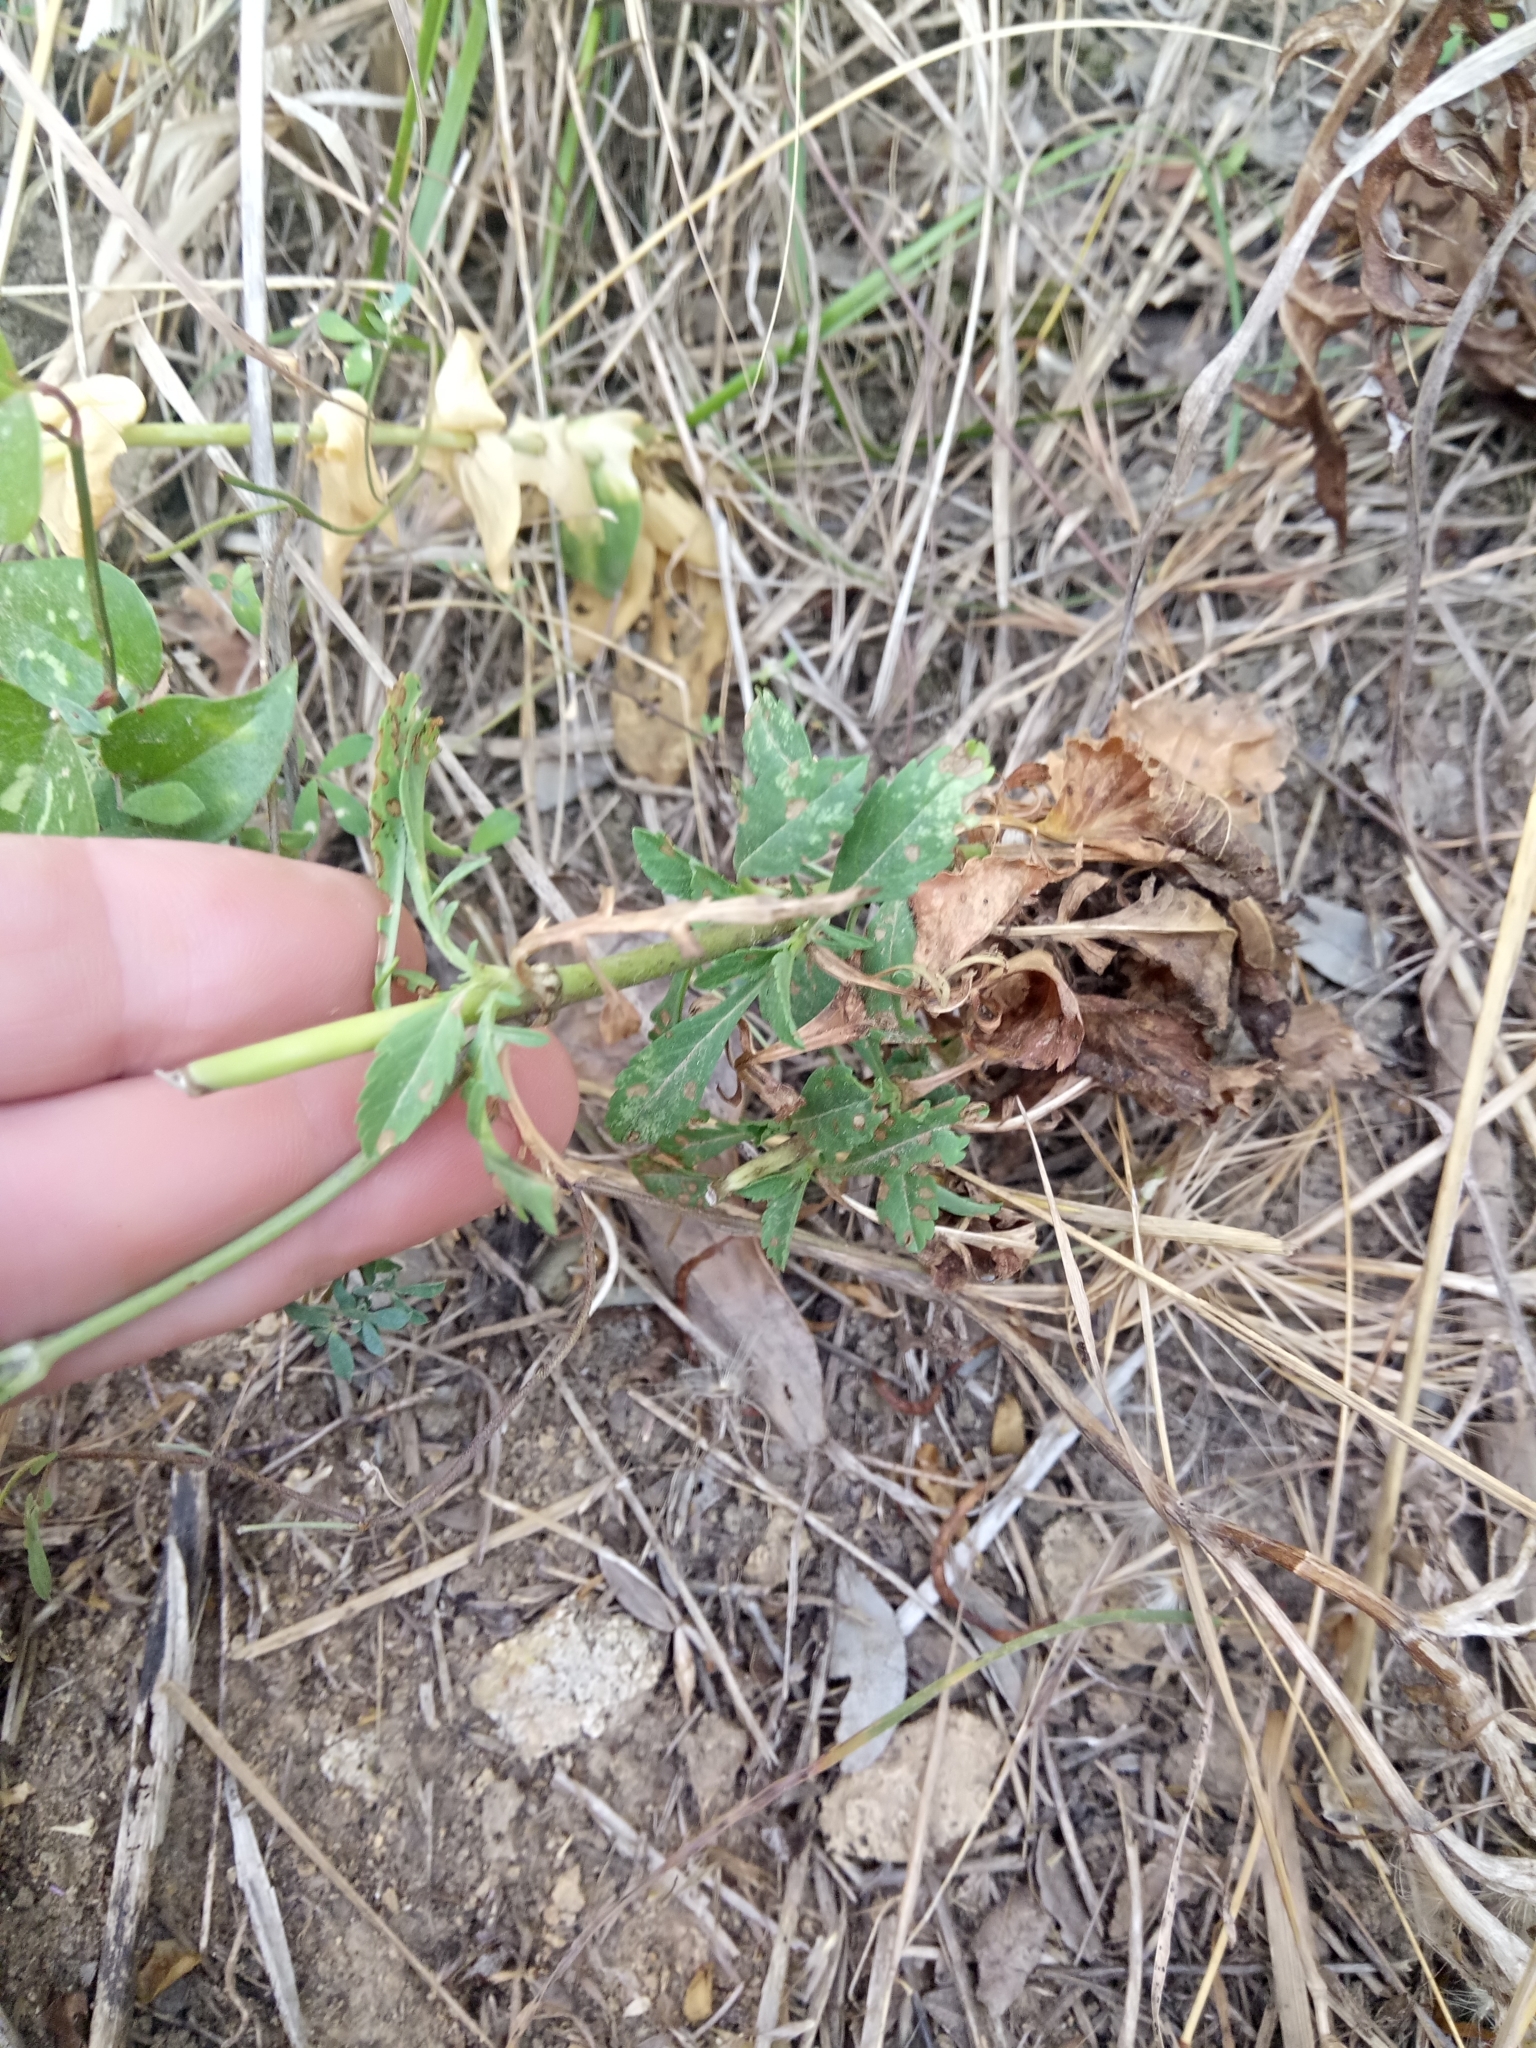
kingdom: Plantae
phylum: Tracheophyta
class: Magnoliopsida
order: Dipsacales
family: Caprifoliaceae
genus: Sixalix
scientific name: Sixalix maritima
